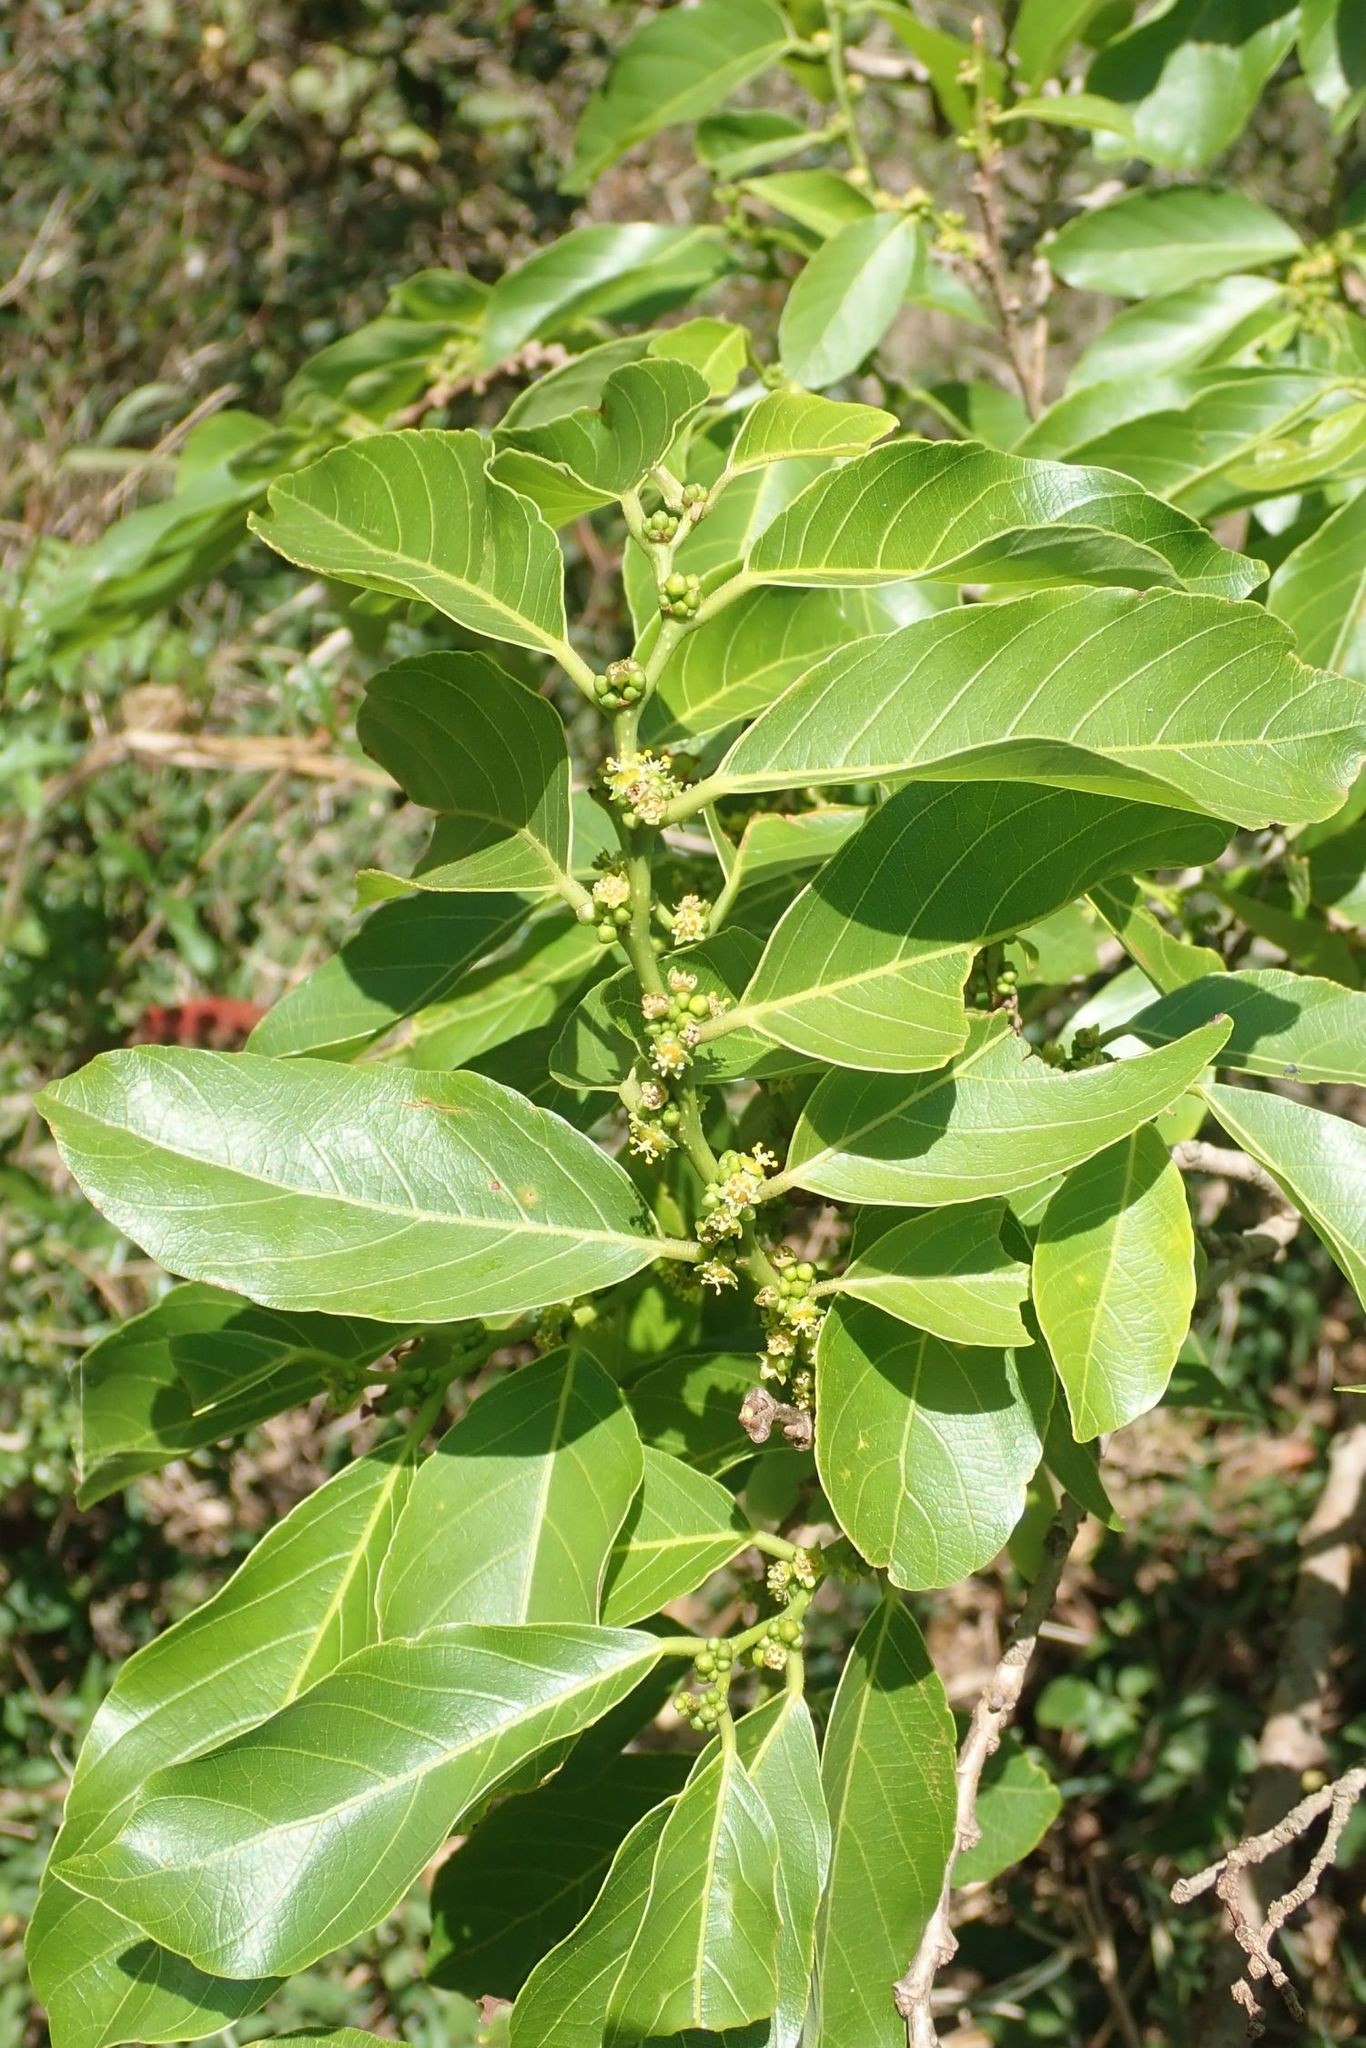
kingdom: Plantae
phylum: Tracheophyta
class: Magnoliopsida
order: Malpighiales
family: Phyllanthaceae
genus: Bridelia
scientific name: Bridelia micrantha
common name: Bridelia
